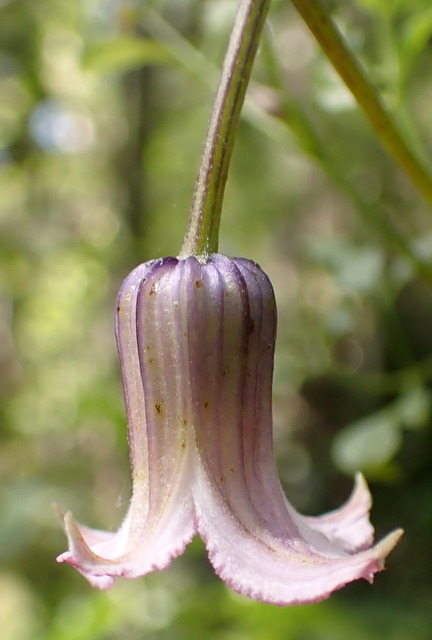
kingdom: Plantae
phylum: Tracheophyta
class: Magnoliopsida
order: Ranunculales
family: Ranunculaceae
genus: Clematis
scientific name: Clematis crispa
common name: Curly clematis
